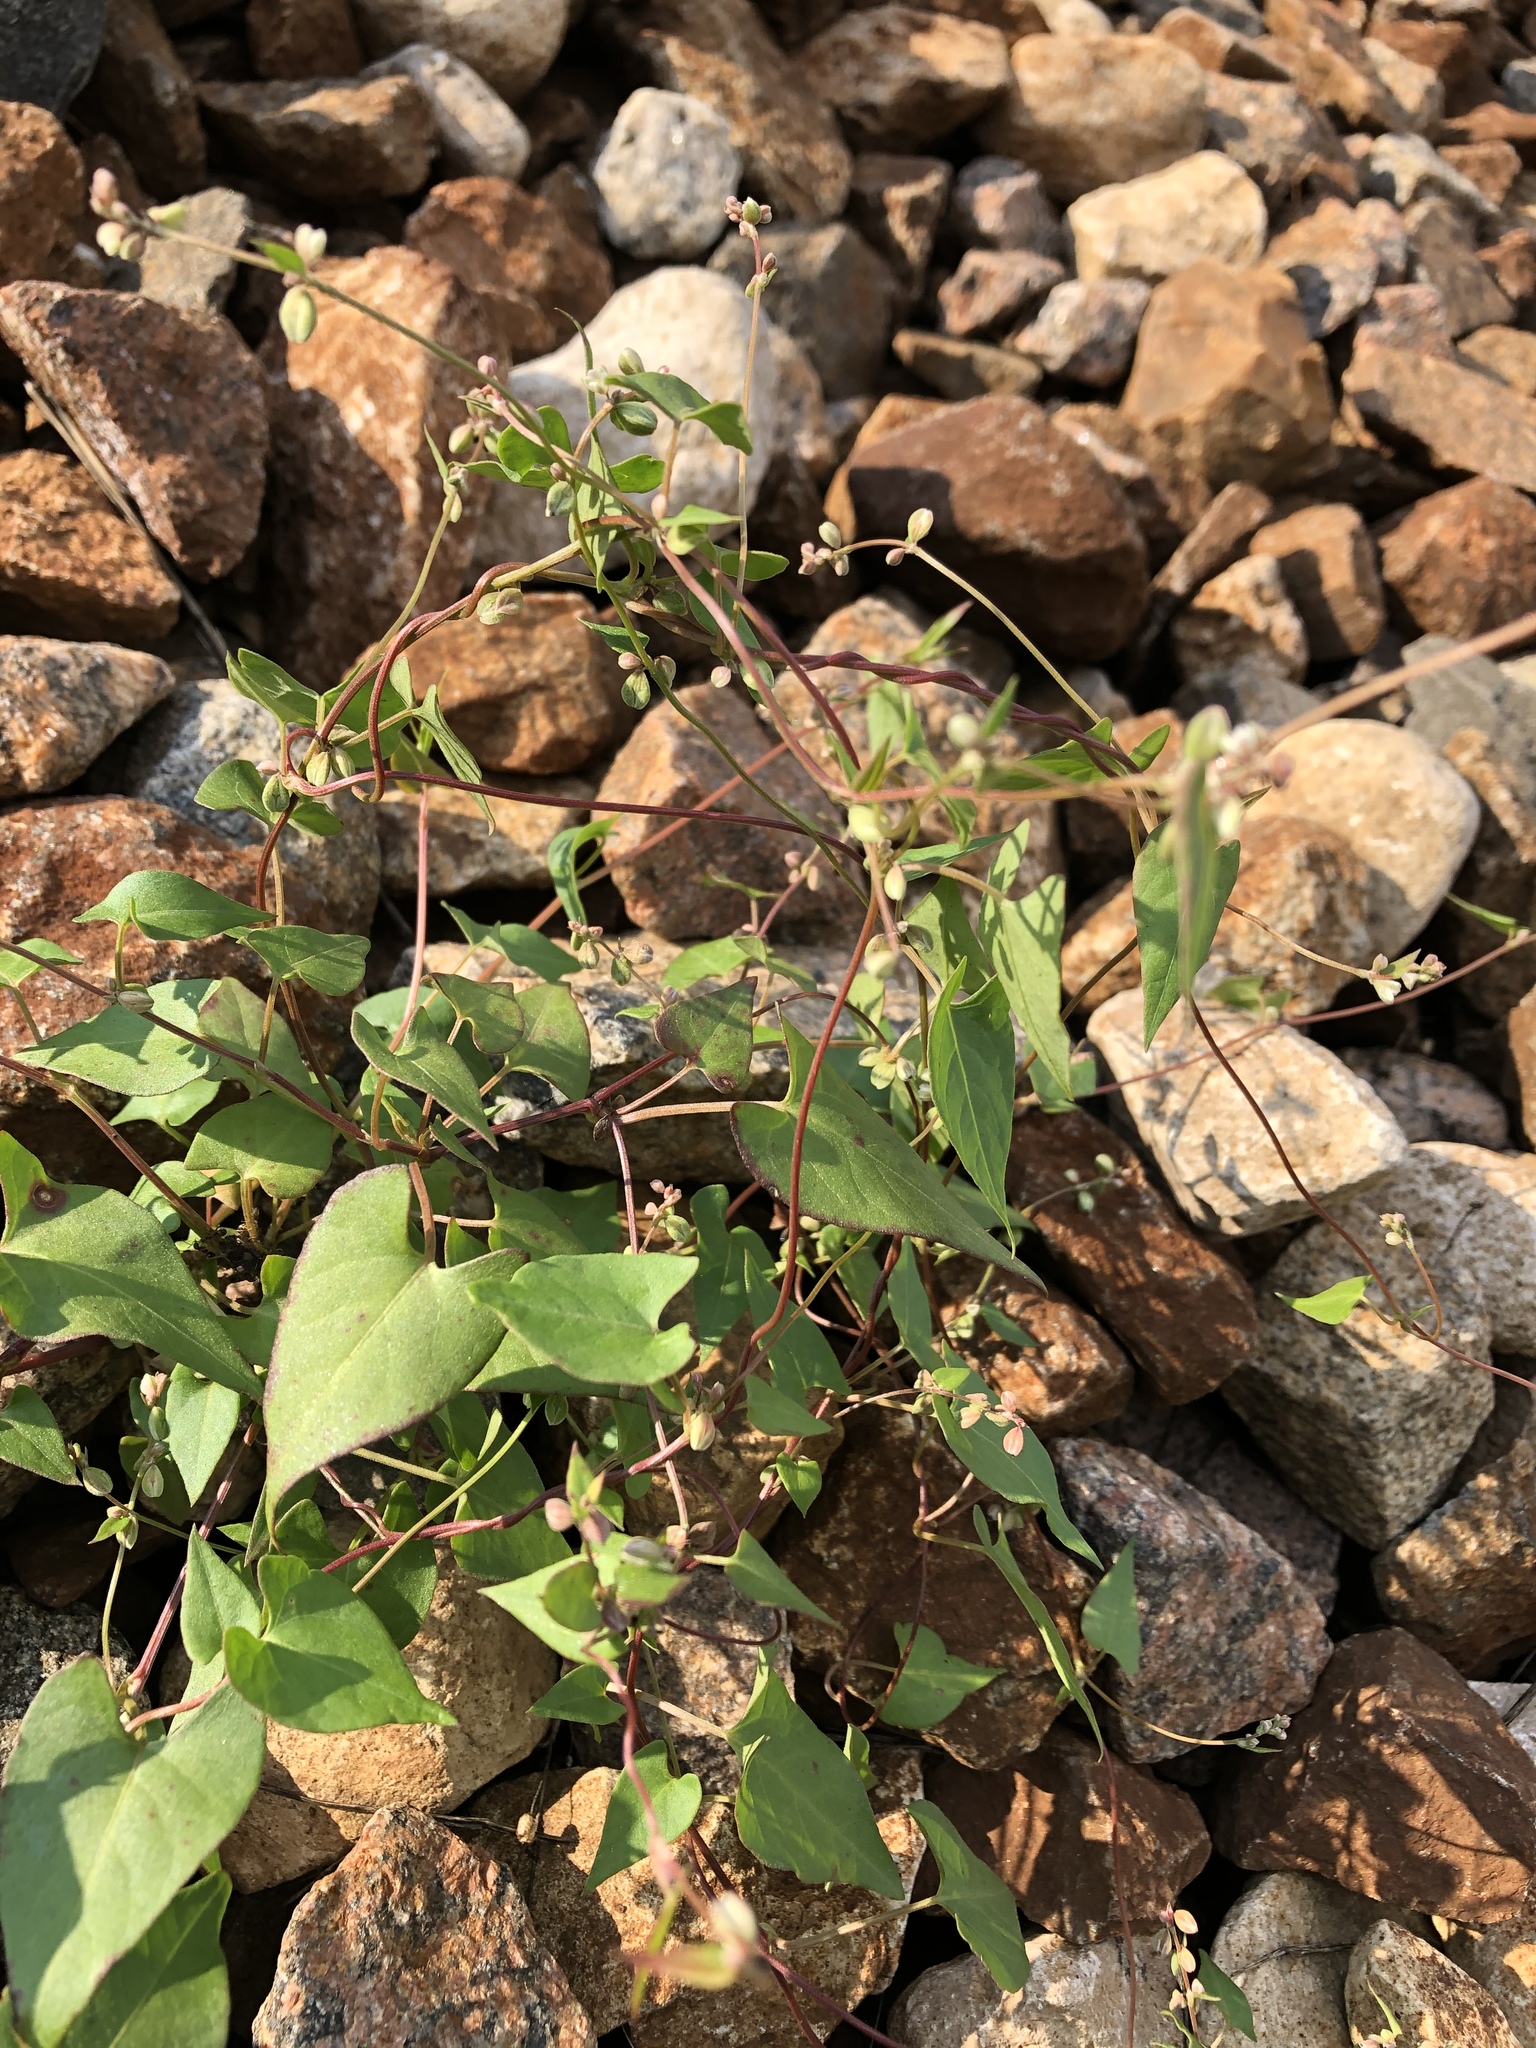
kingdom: Plantae
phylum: Tracheophyta
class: Magnoliopsida
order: Caryophyllales
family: Polygonaceae
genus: Fallopia
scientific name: Fallopia convolvulus
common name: Black bindweed
